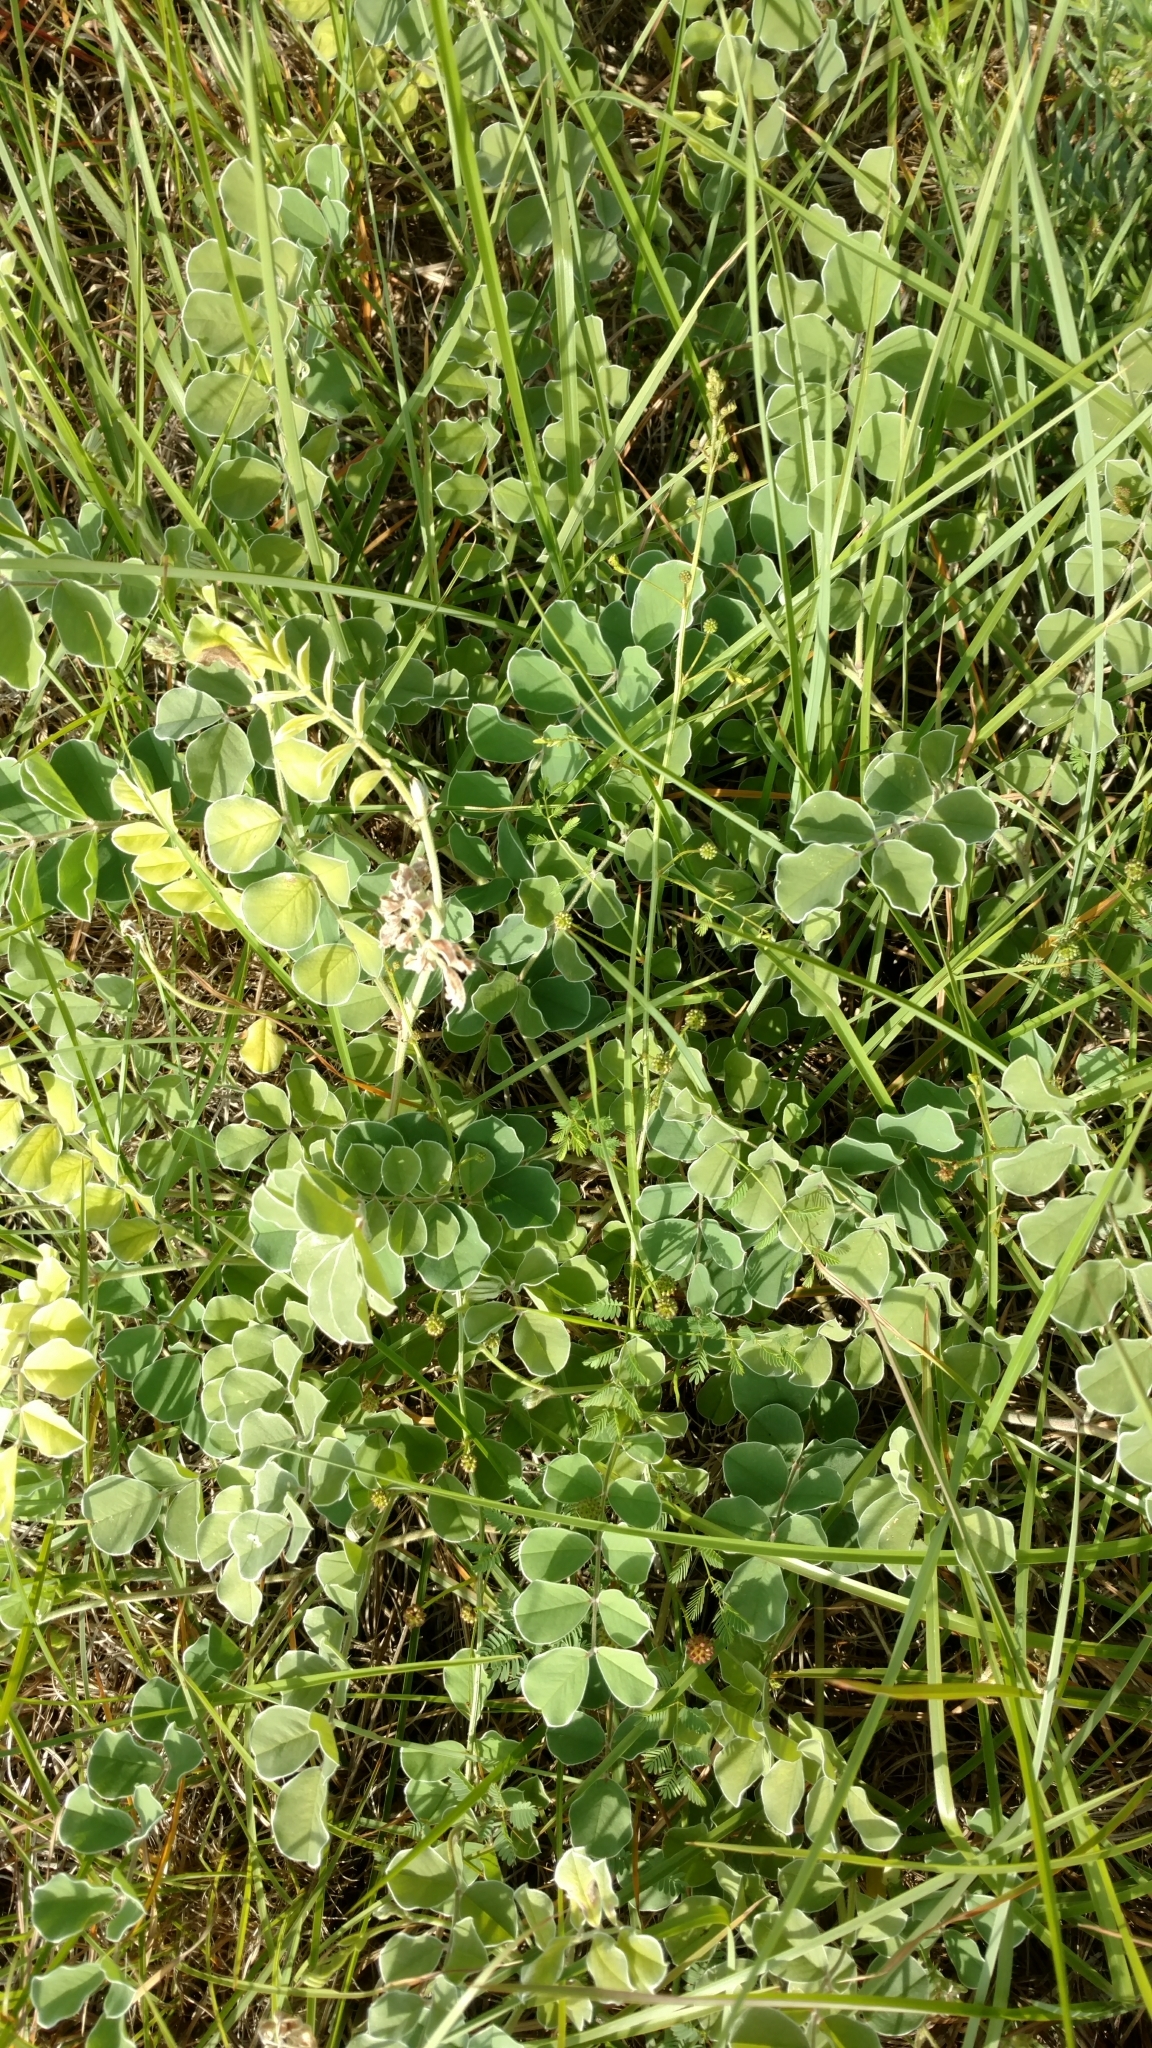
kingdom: Plantae
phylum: Tracheophyta
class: Magnoliopsida
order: Fabales
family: Fabaceae
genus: Tephrosia
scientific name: Tephrosia lindheimeri
